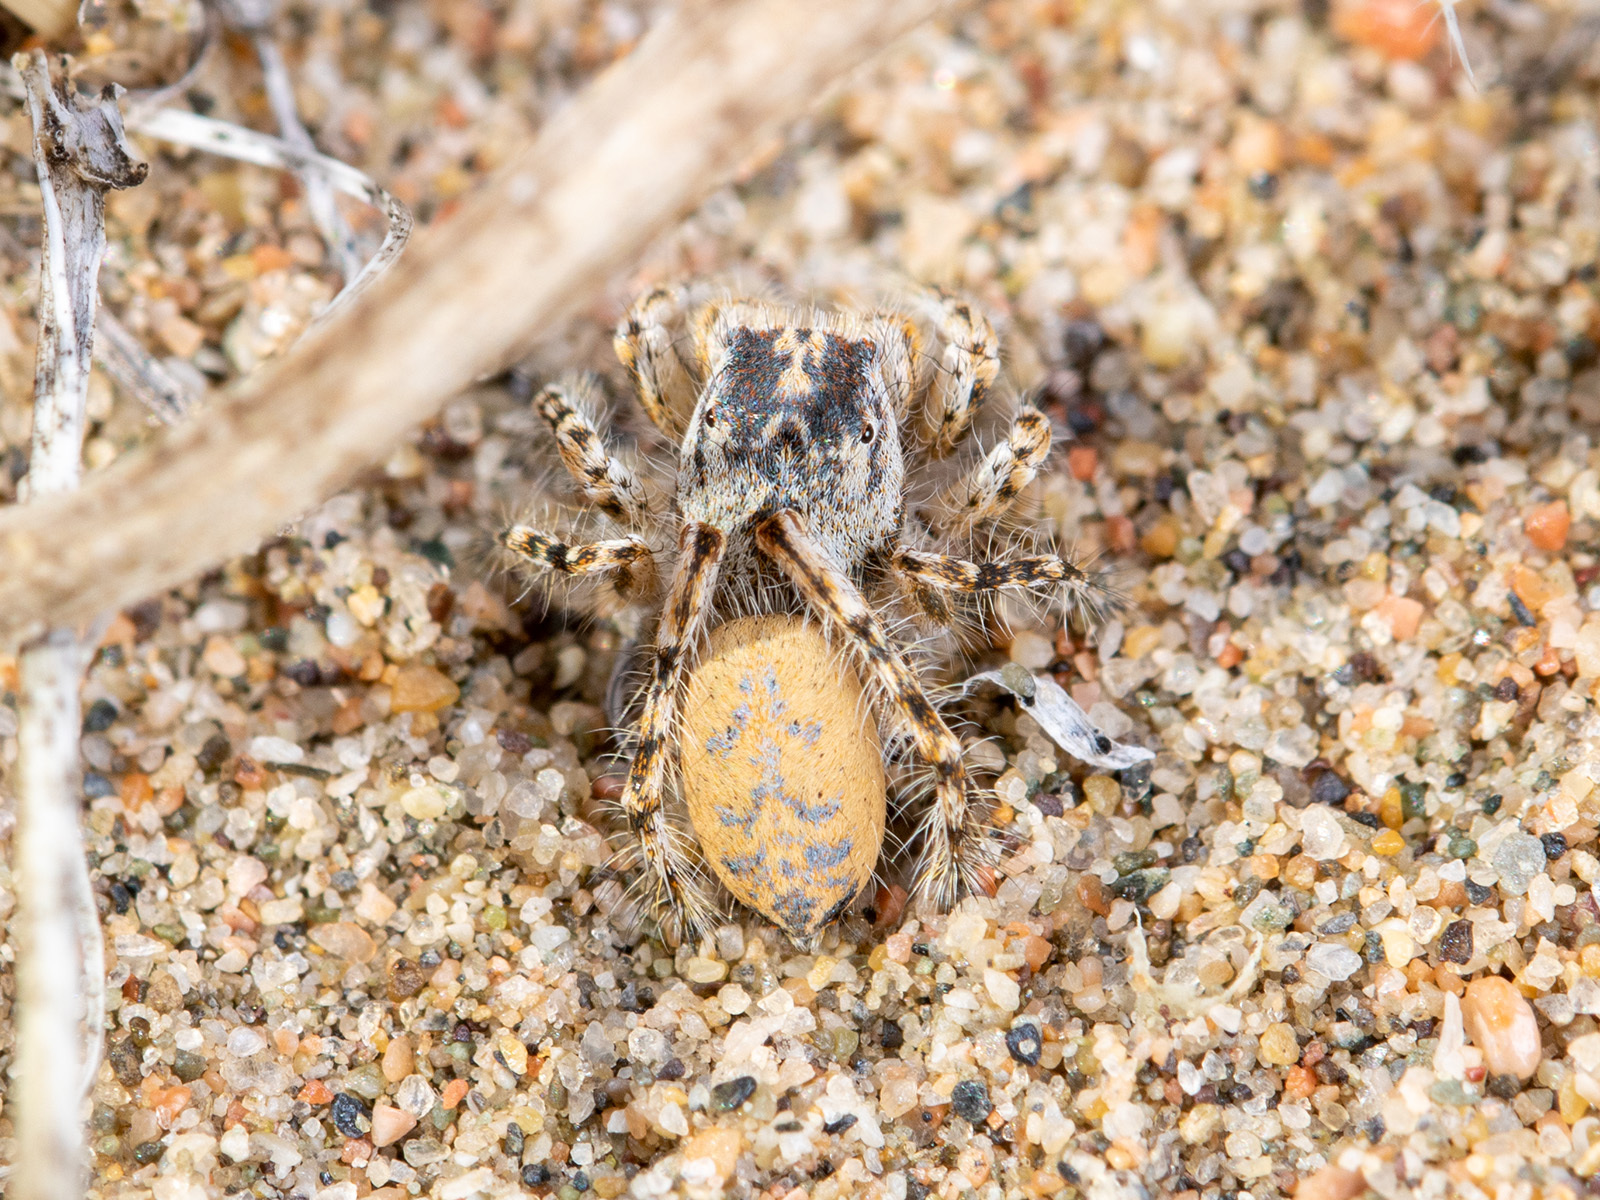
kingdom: Animalia
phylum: Arthropoda
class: Arachnida
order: Araneae
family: Salticidae
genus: Yllenus
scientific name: Yllenus turkestanicus
